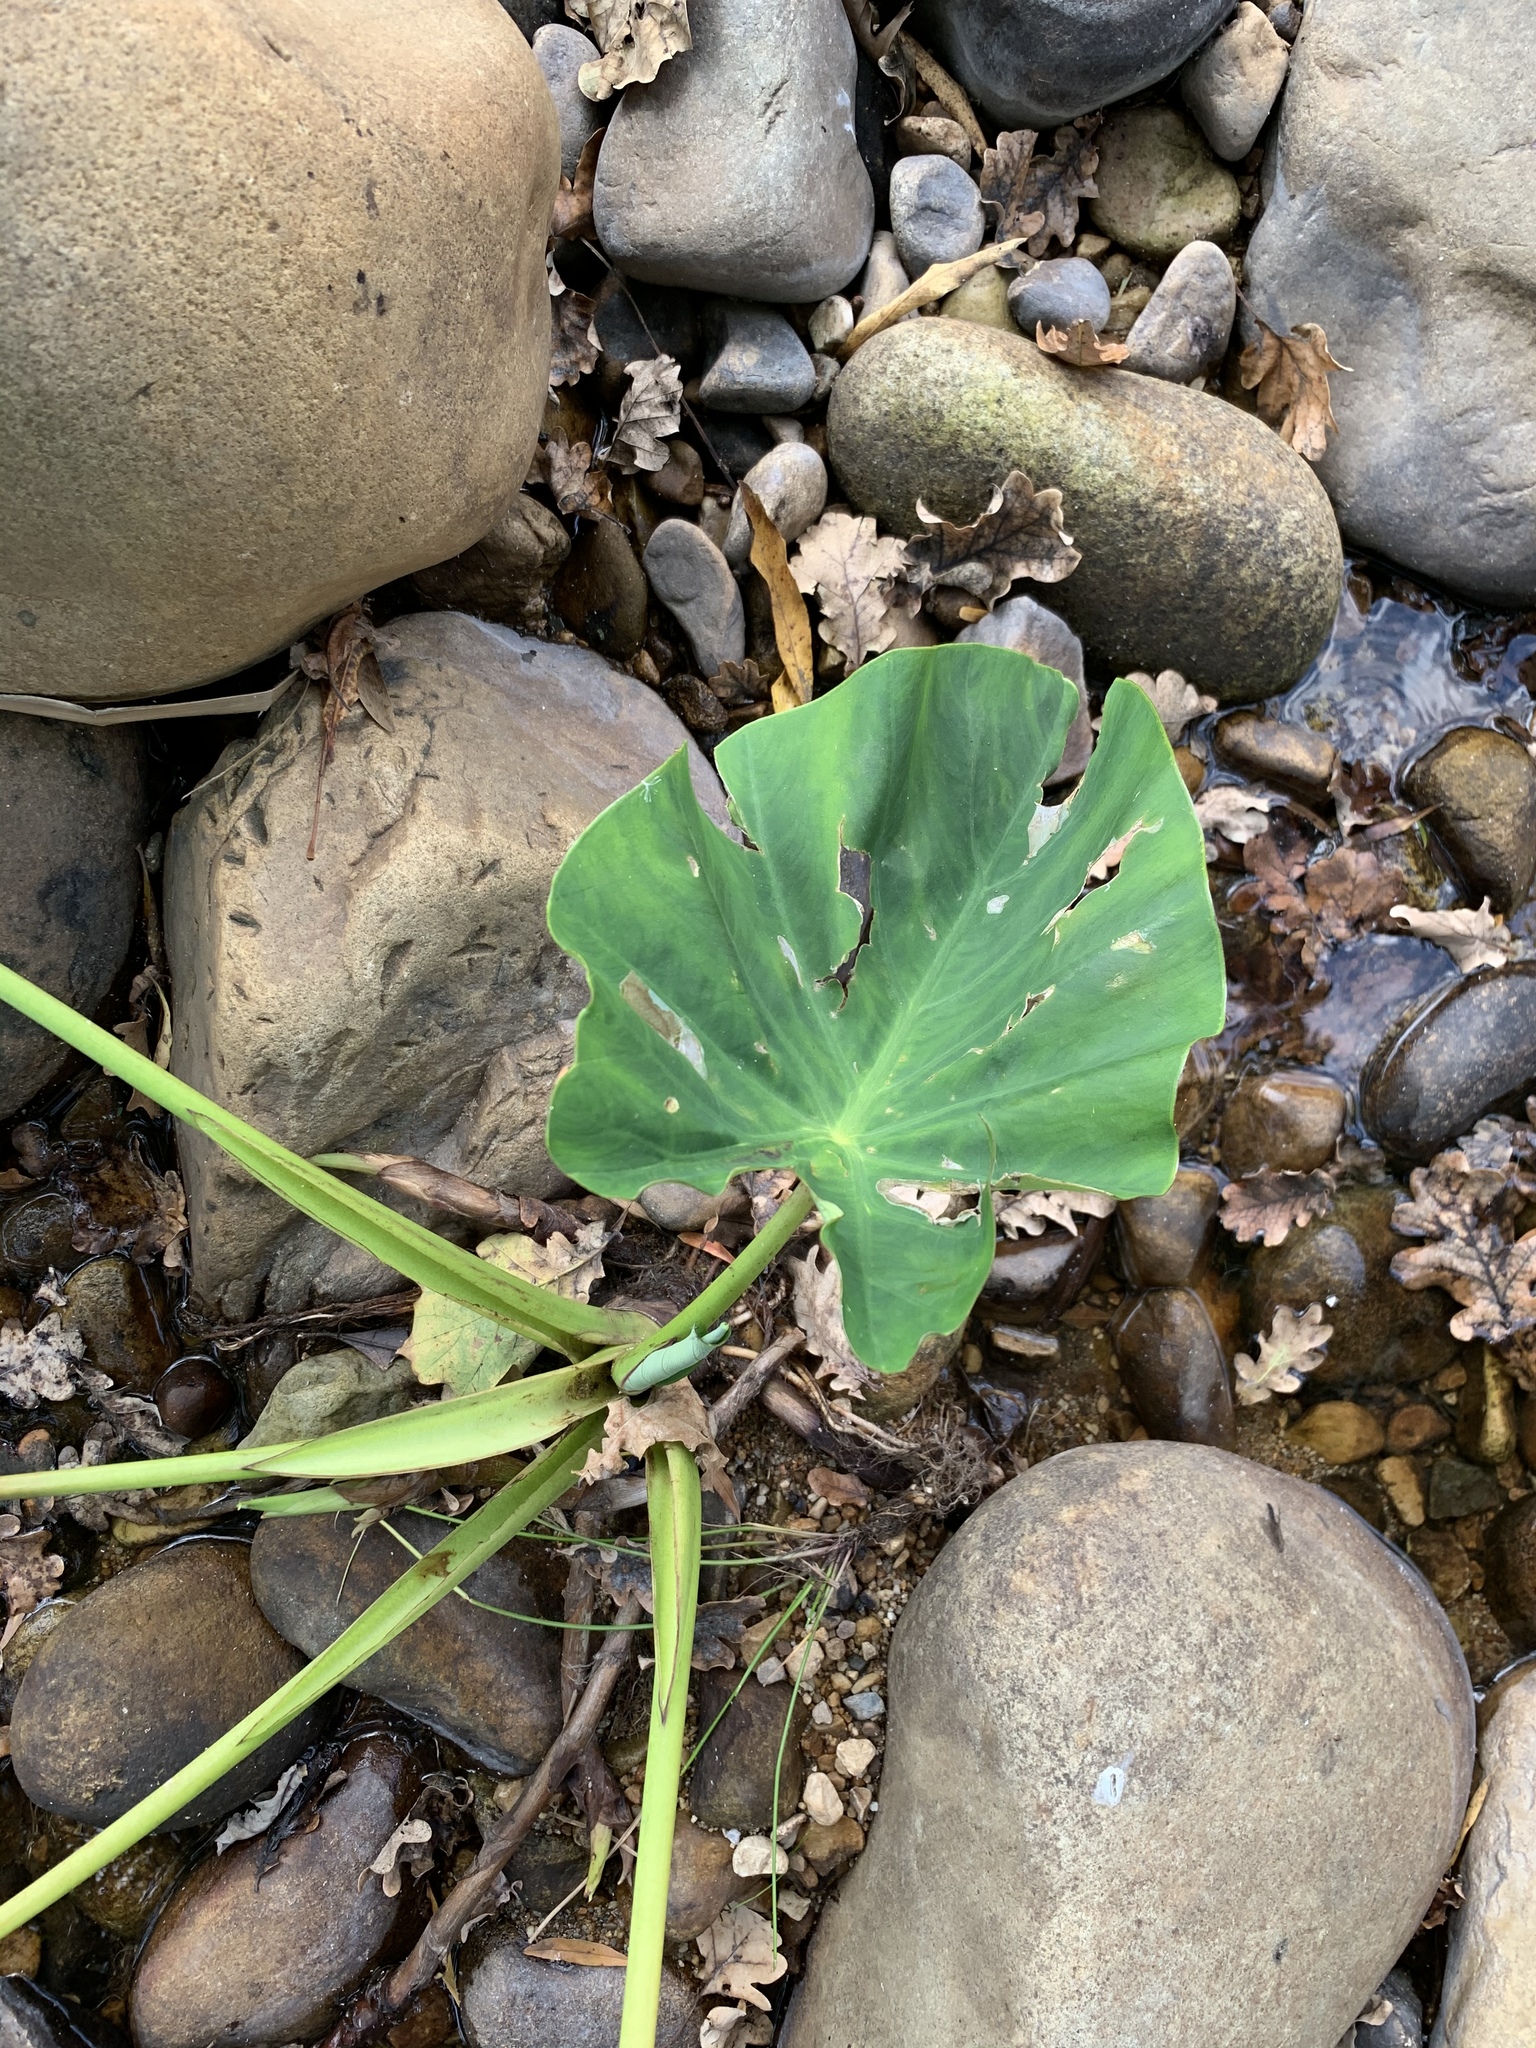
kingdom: Plantae
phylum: Tracheophyta
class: Liliopsida
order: Alismatales
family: Araceae
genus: Colocasia
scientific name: Colocasia esculenta
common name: Taro
